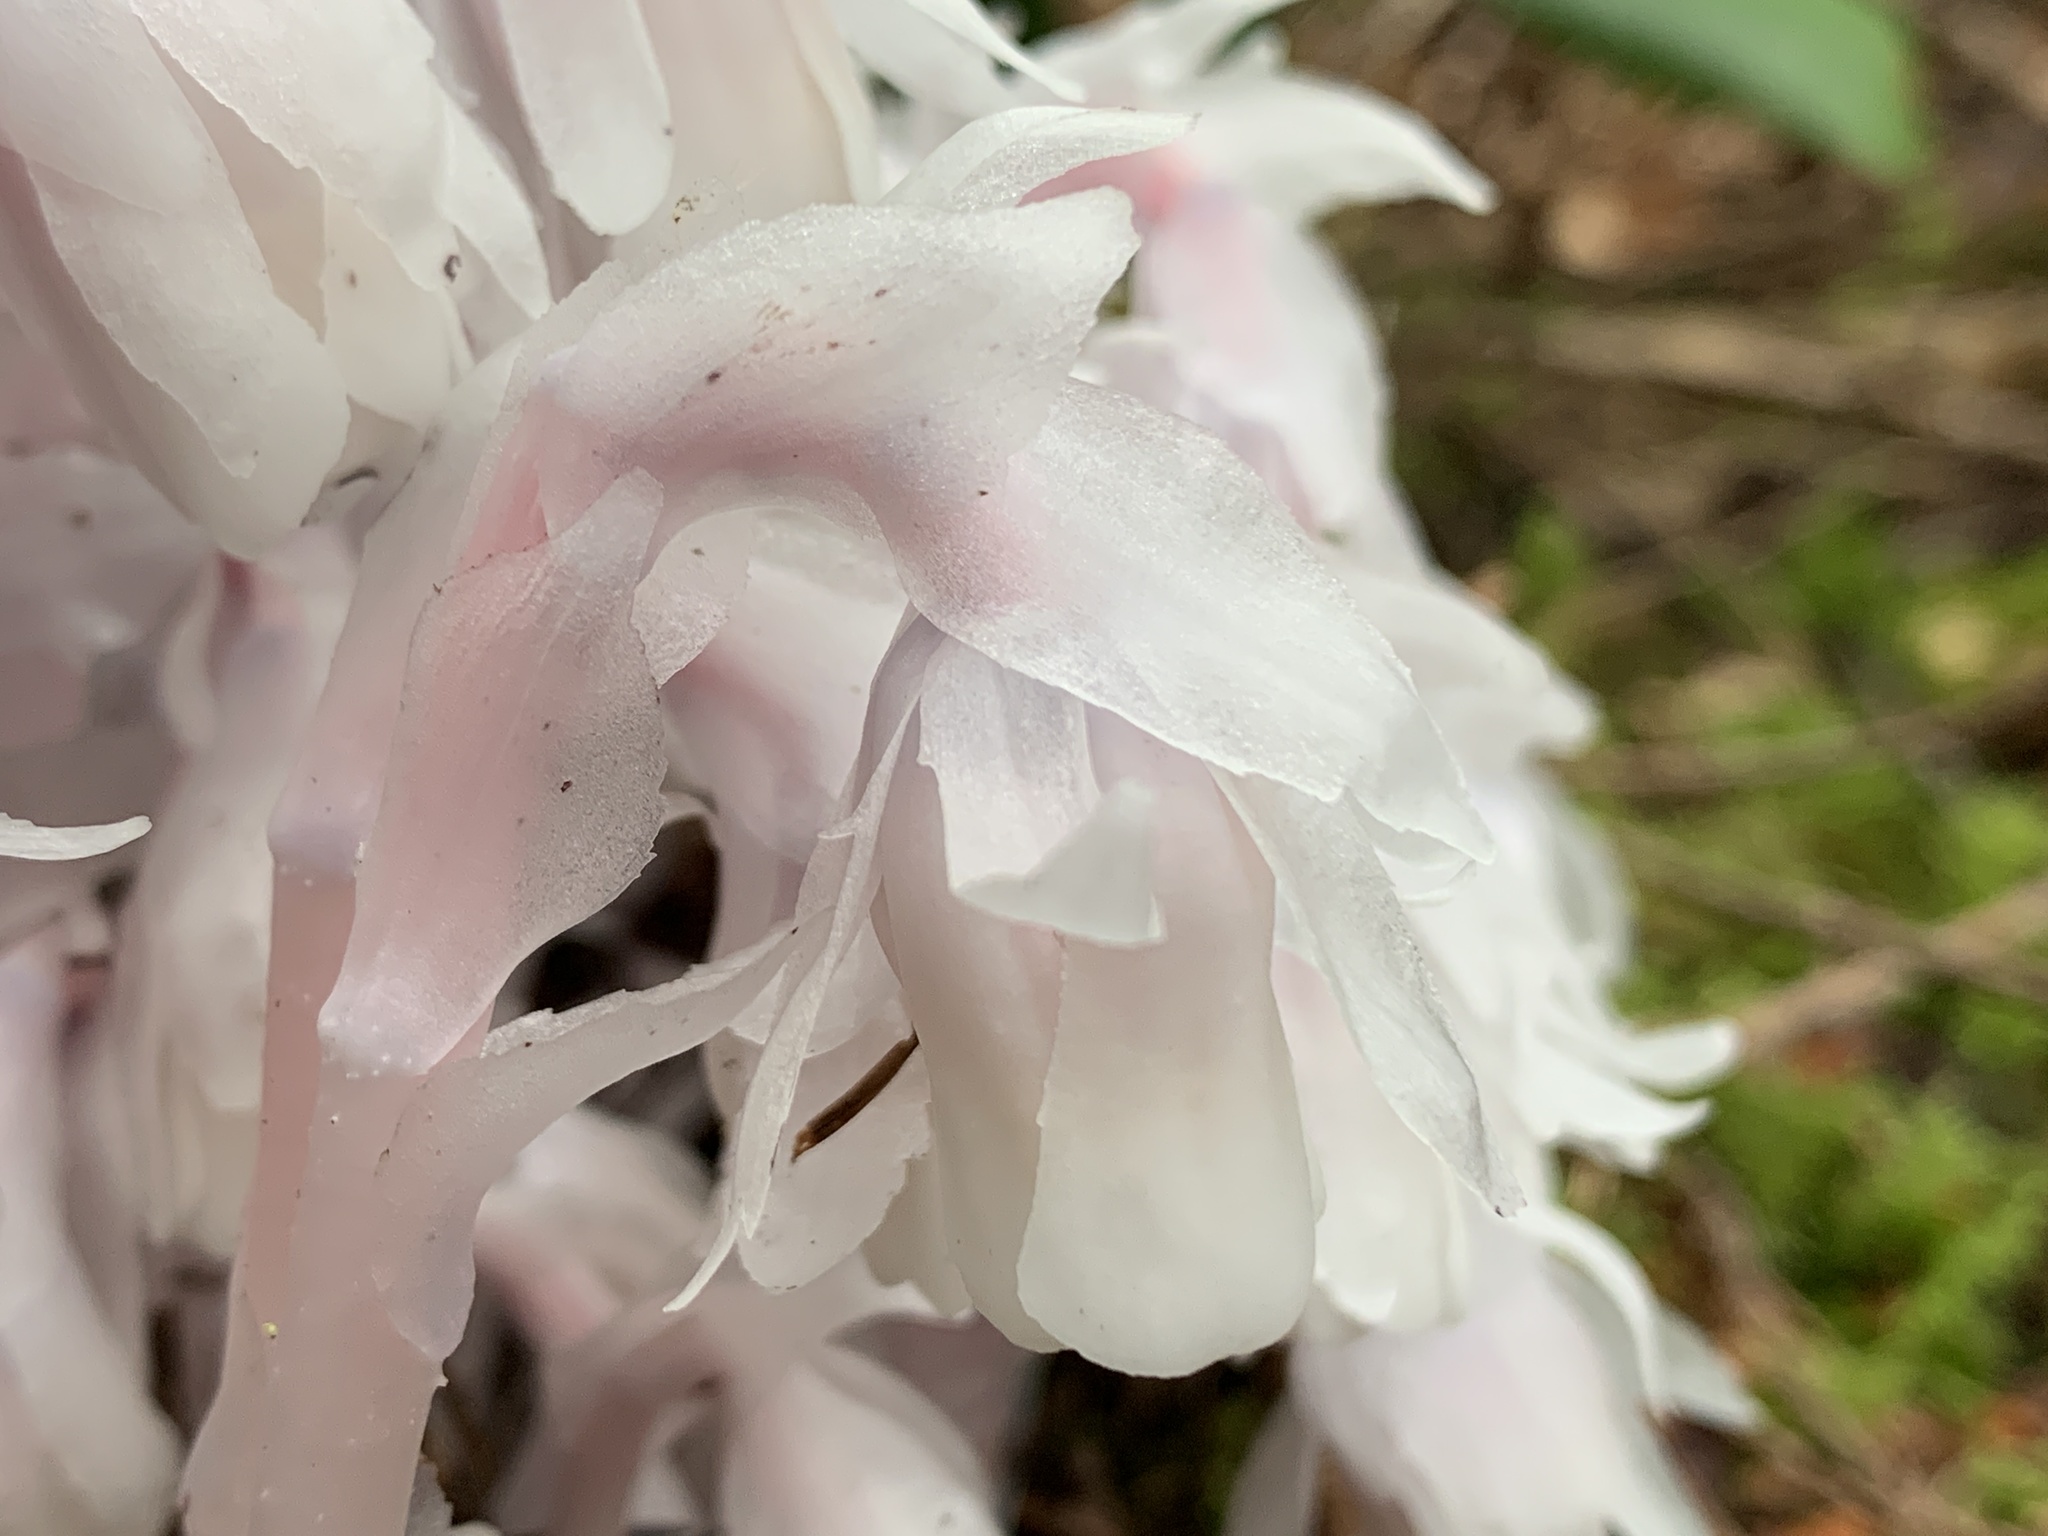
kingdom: Plantae
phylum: Tracheophyta
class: Magnoliopsida
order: Ericales
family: Ericaceae
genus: Monotropa
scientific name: Monotropa uniflora
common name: Convulsion root
